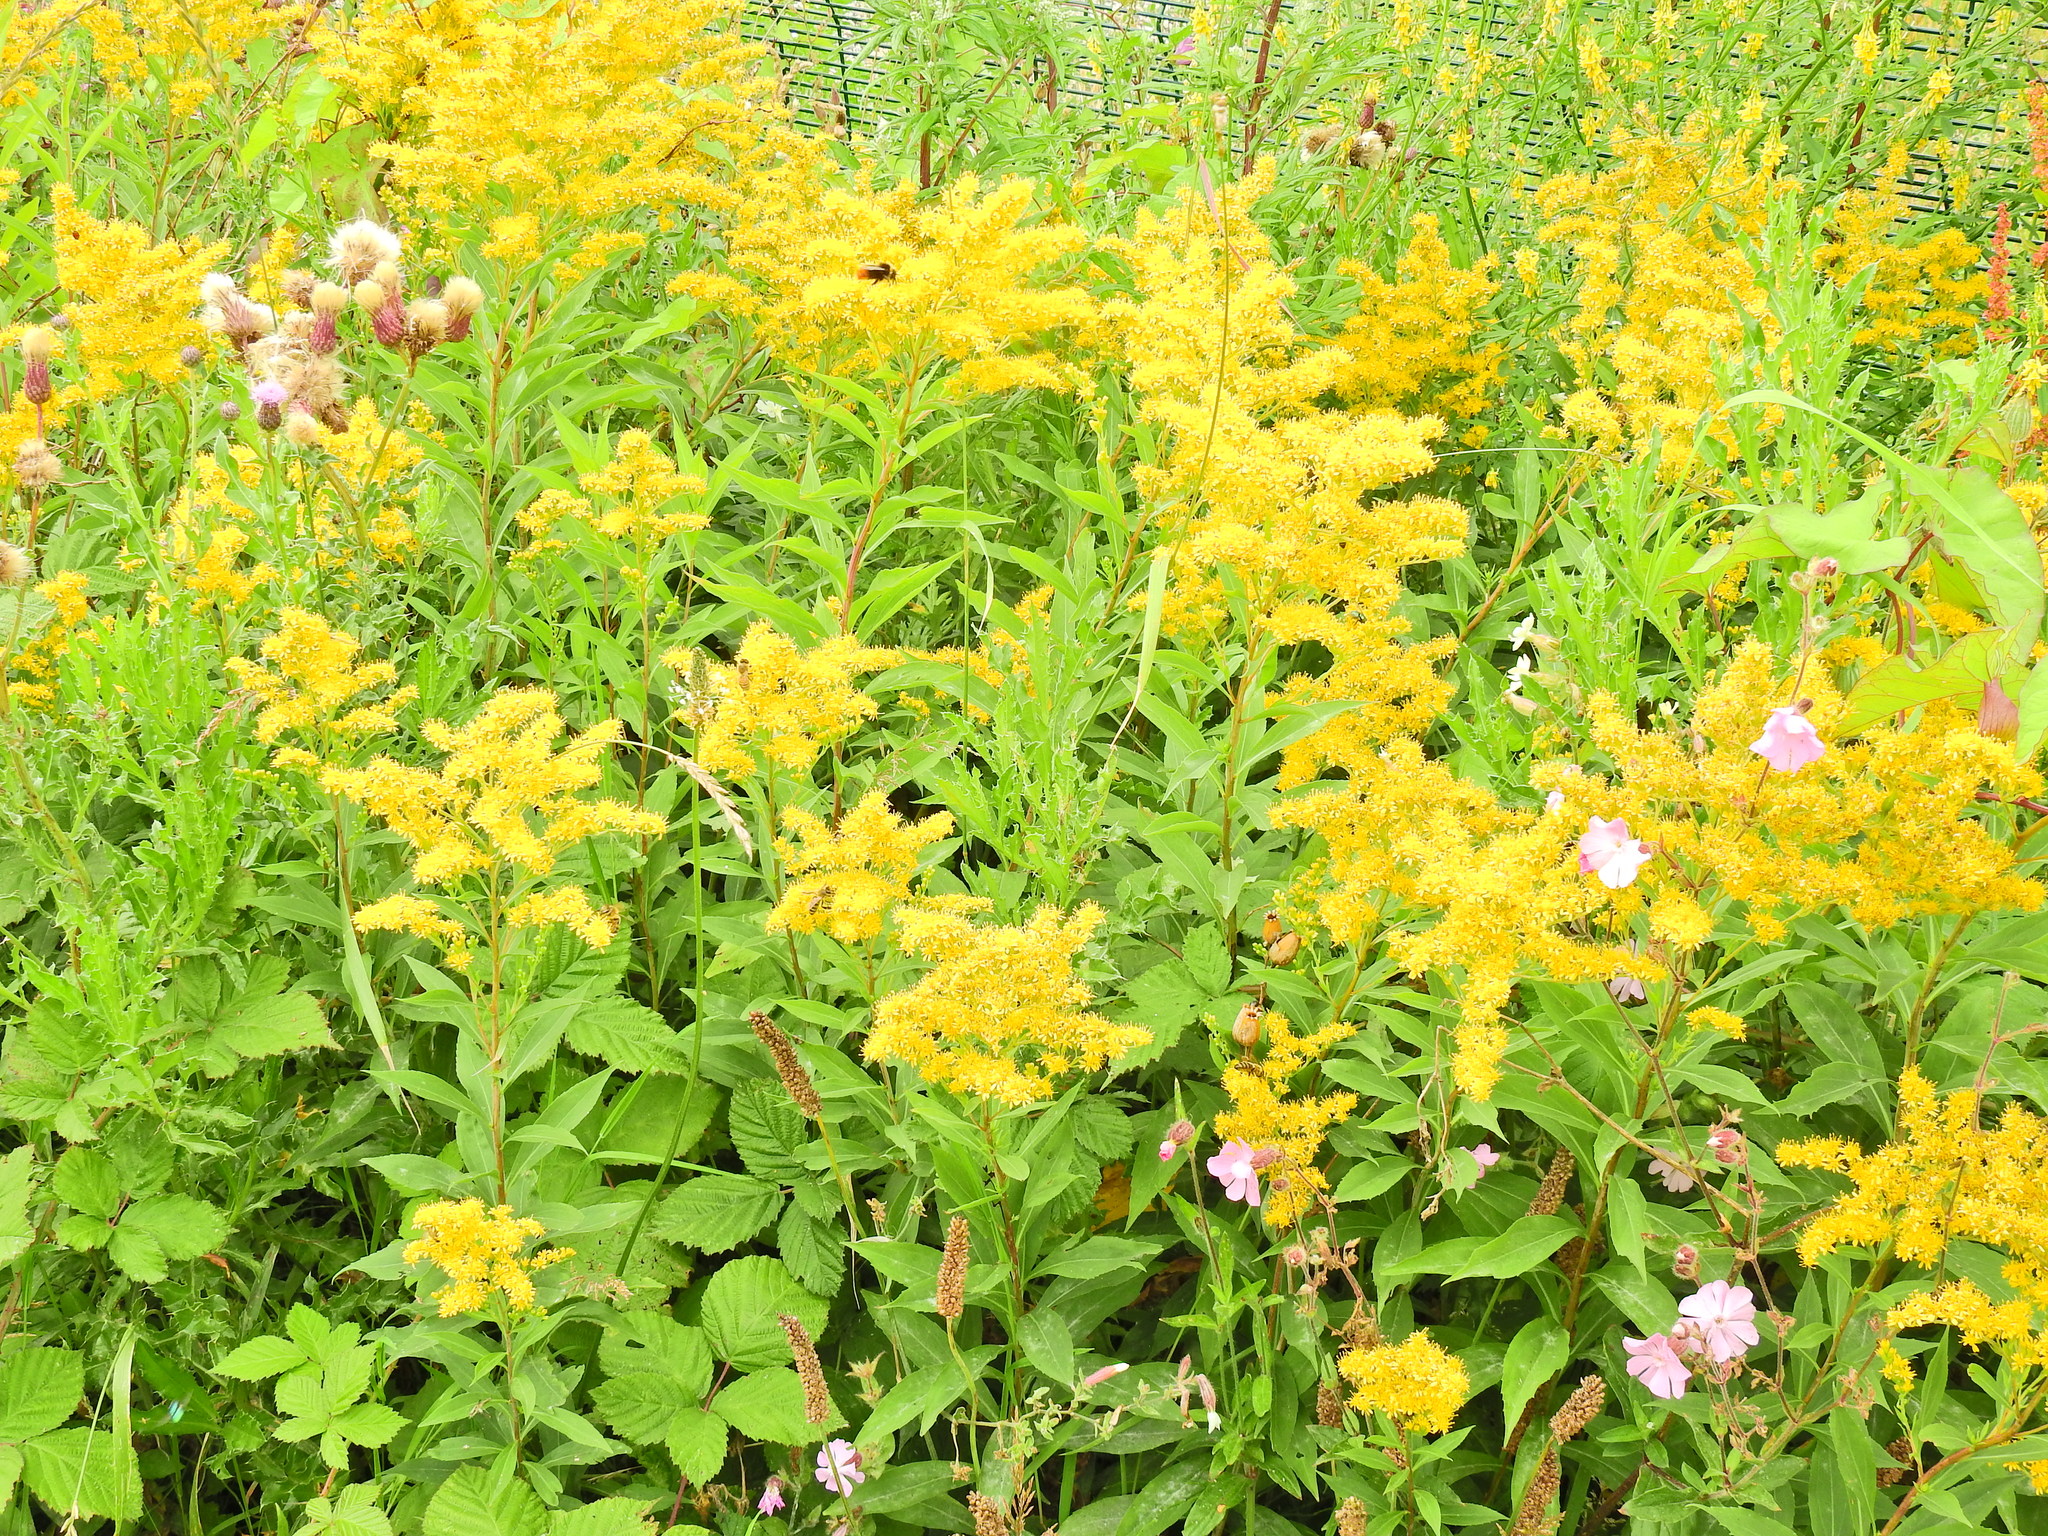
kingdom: Plantae
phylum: Tracheophyta
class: Magnoliopsida
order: Asterales
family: Asteraceae
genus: Solidago
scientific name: Solidago canadensis
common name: Canada goldenrod
